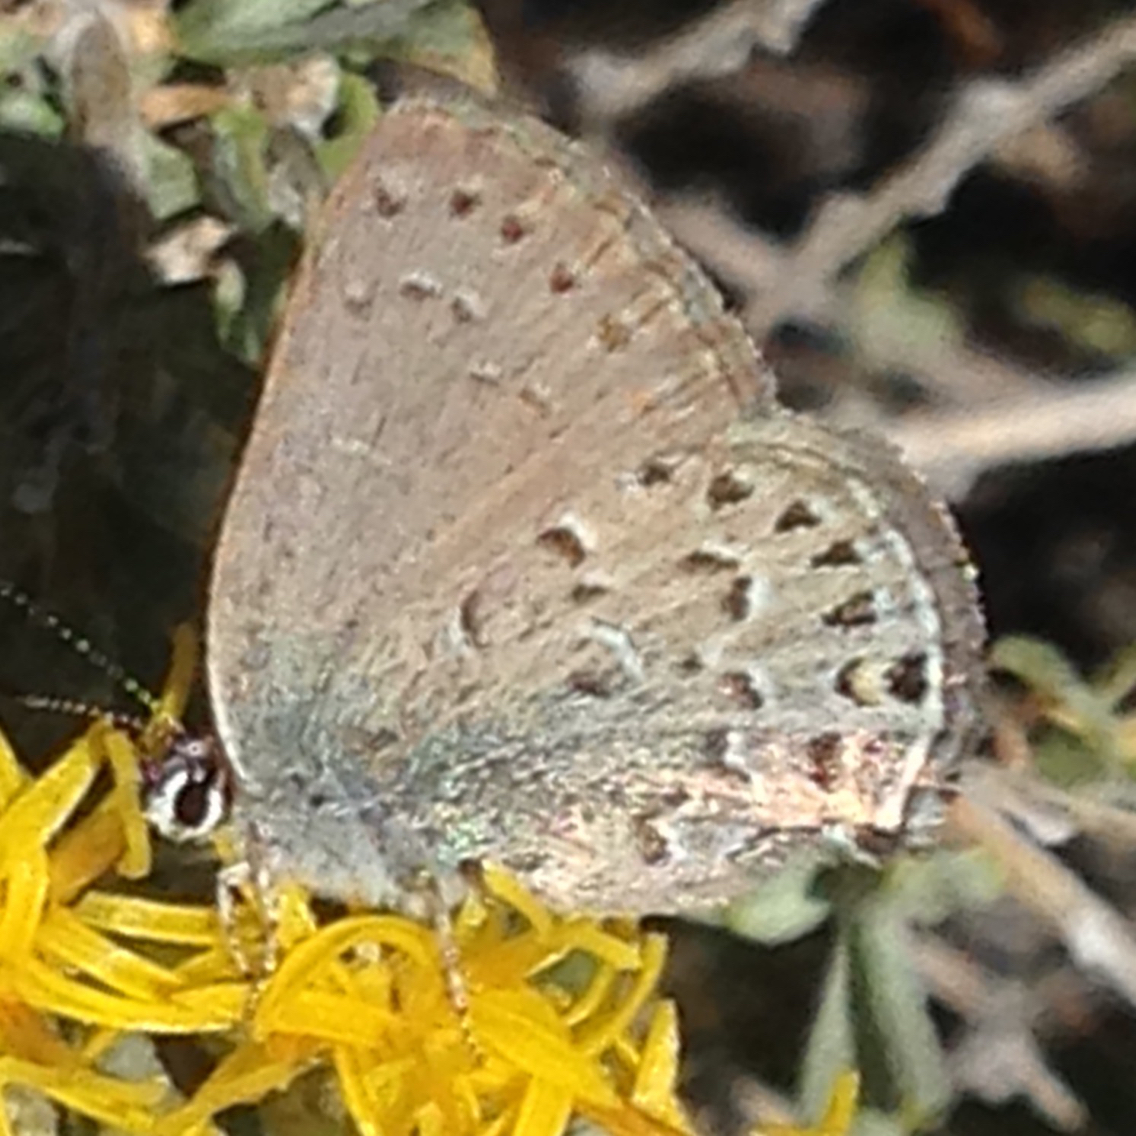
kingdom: Animalia
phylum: Arthropoda
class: Insecta
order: Lepidoptera
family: Lycaenidae
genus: Satyrium
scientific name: Satyrium behrii
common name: Behr's hairstreak
